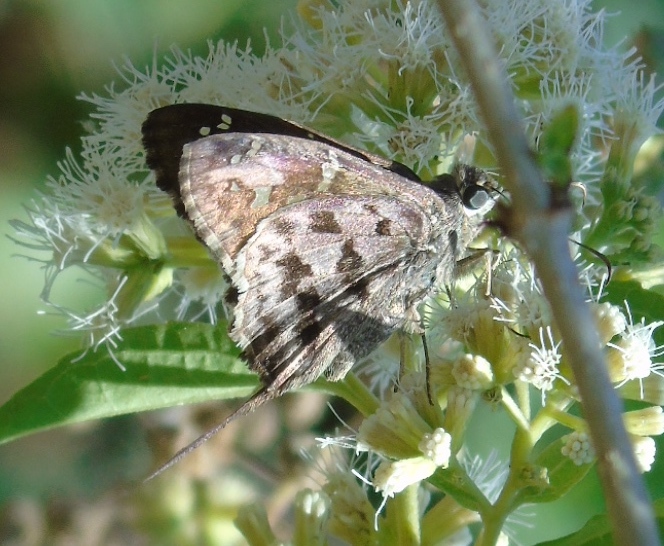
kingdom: Animalia
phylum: Arthropoda
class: Insecta
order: Lepidoptera
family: Hesperiidae
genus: Thorybes
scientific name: Thorybes
